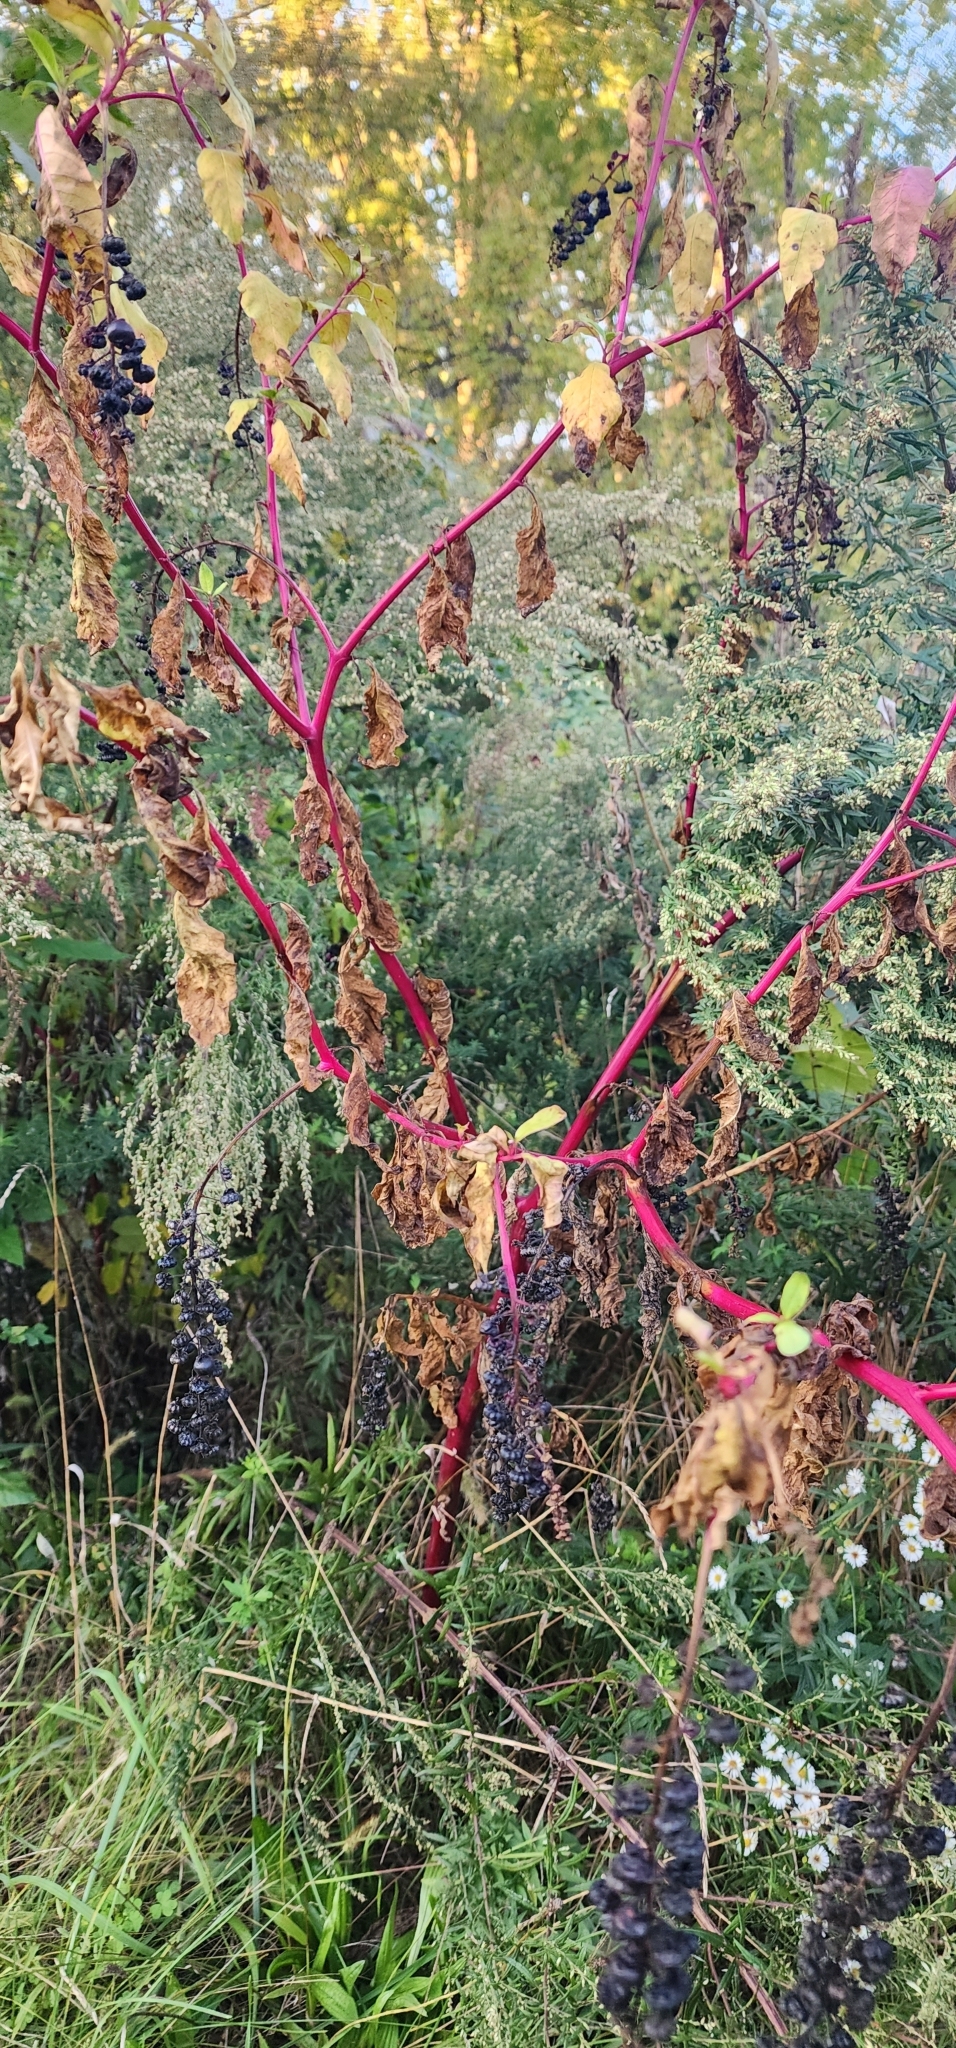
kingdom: Plantae
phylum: Tracheophyta
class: Magnoliopsida
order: Caryophyllales
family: Phytolaccaceae
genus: Phytolacca
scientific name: Phytolacca americana
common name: American pokeweed
